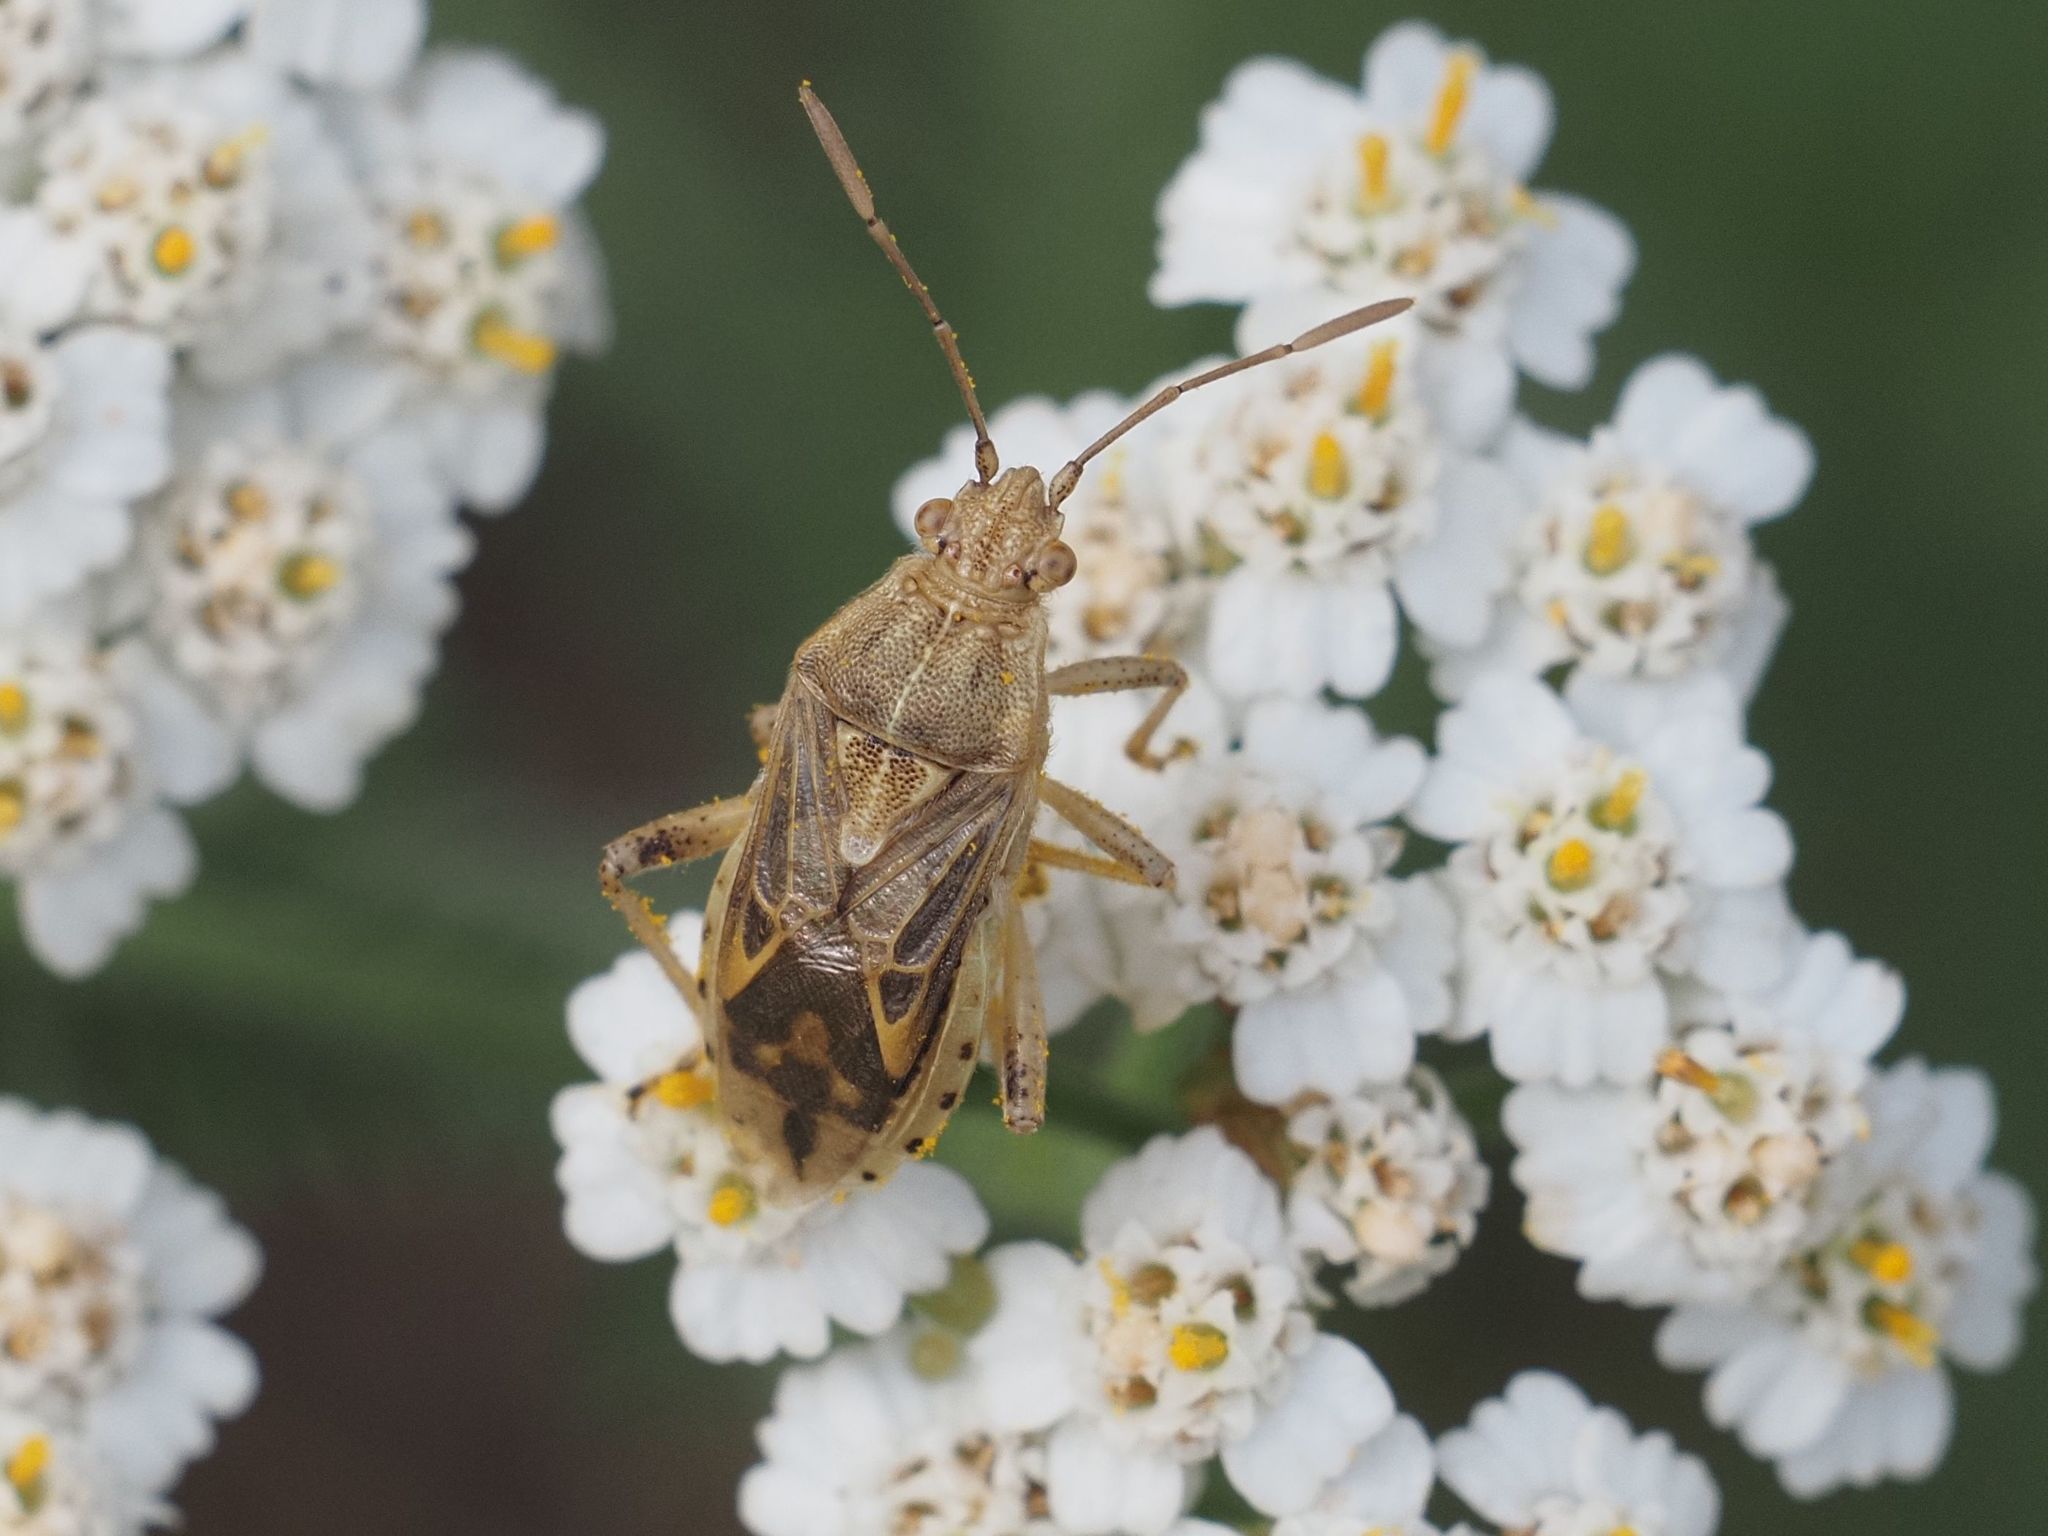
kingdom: Animalia
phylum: Arthropoda
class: Insecta
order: Hemiptera
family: Rhopalidae
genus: Stictopleurus
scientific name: Stictopleurus abutilon
